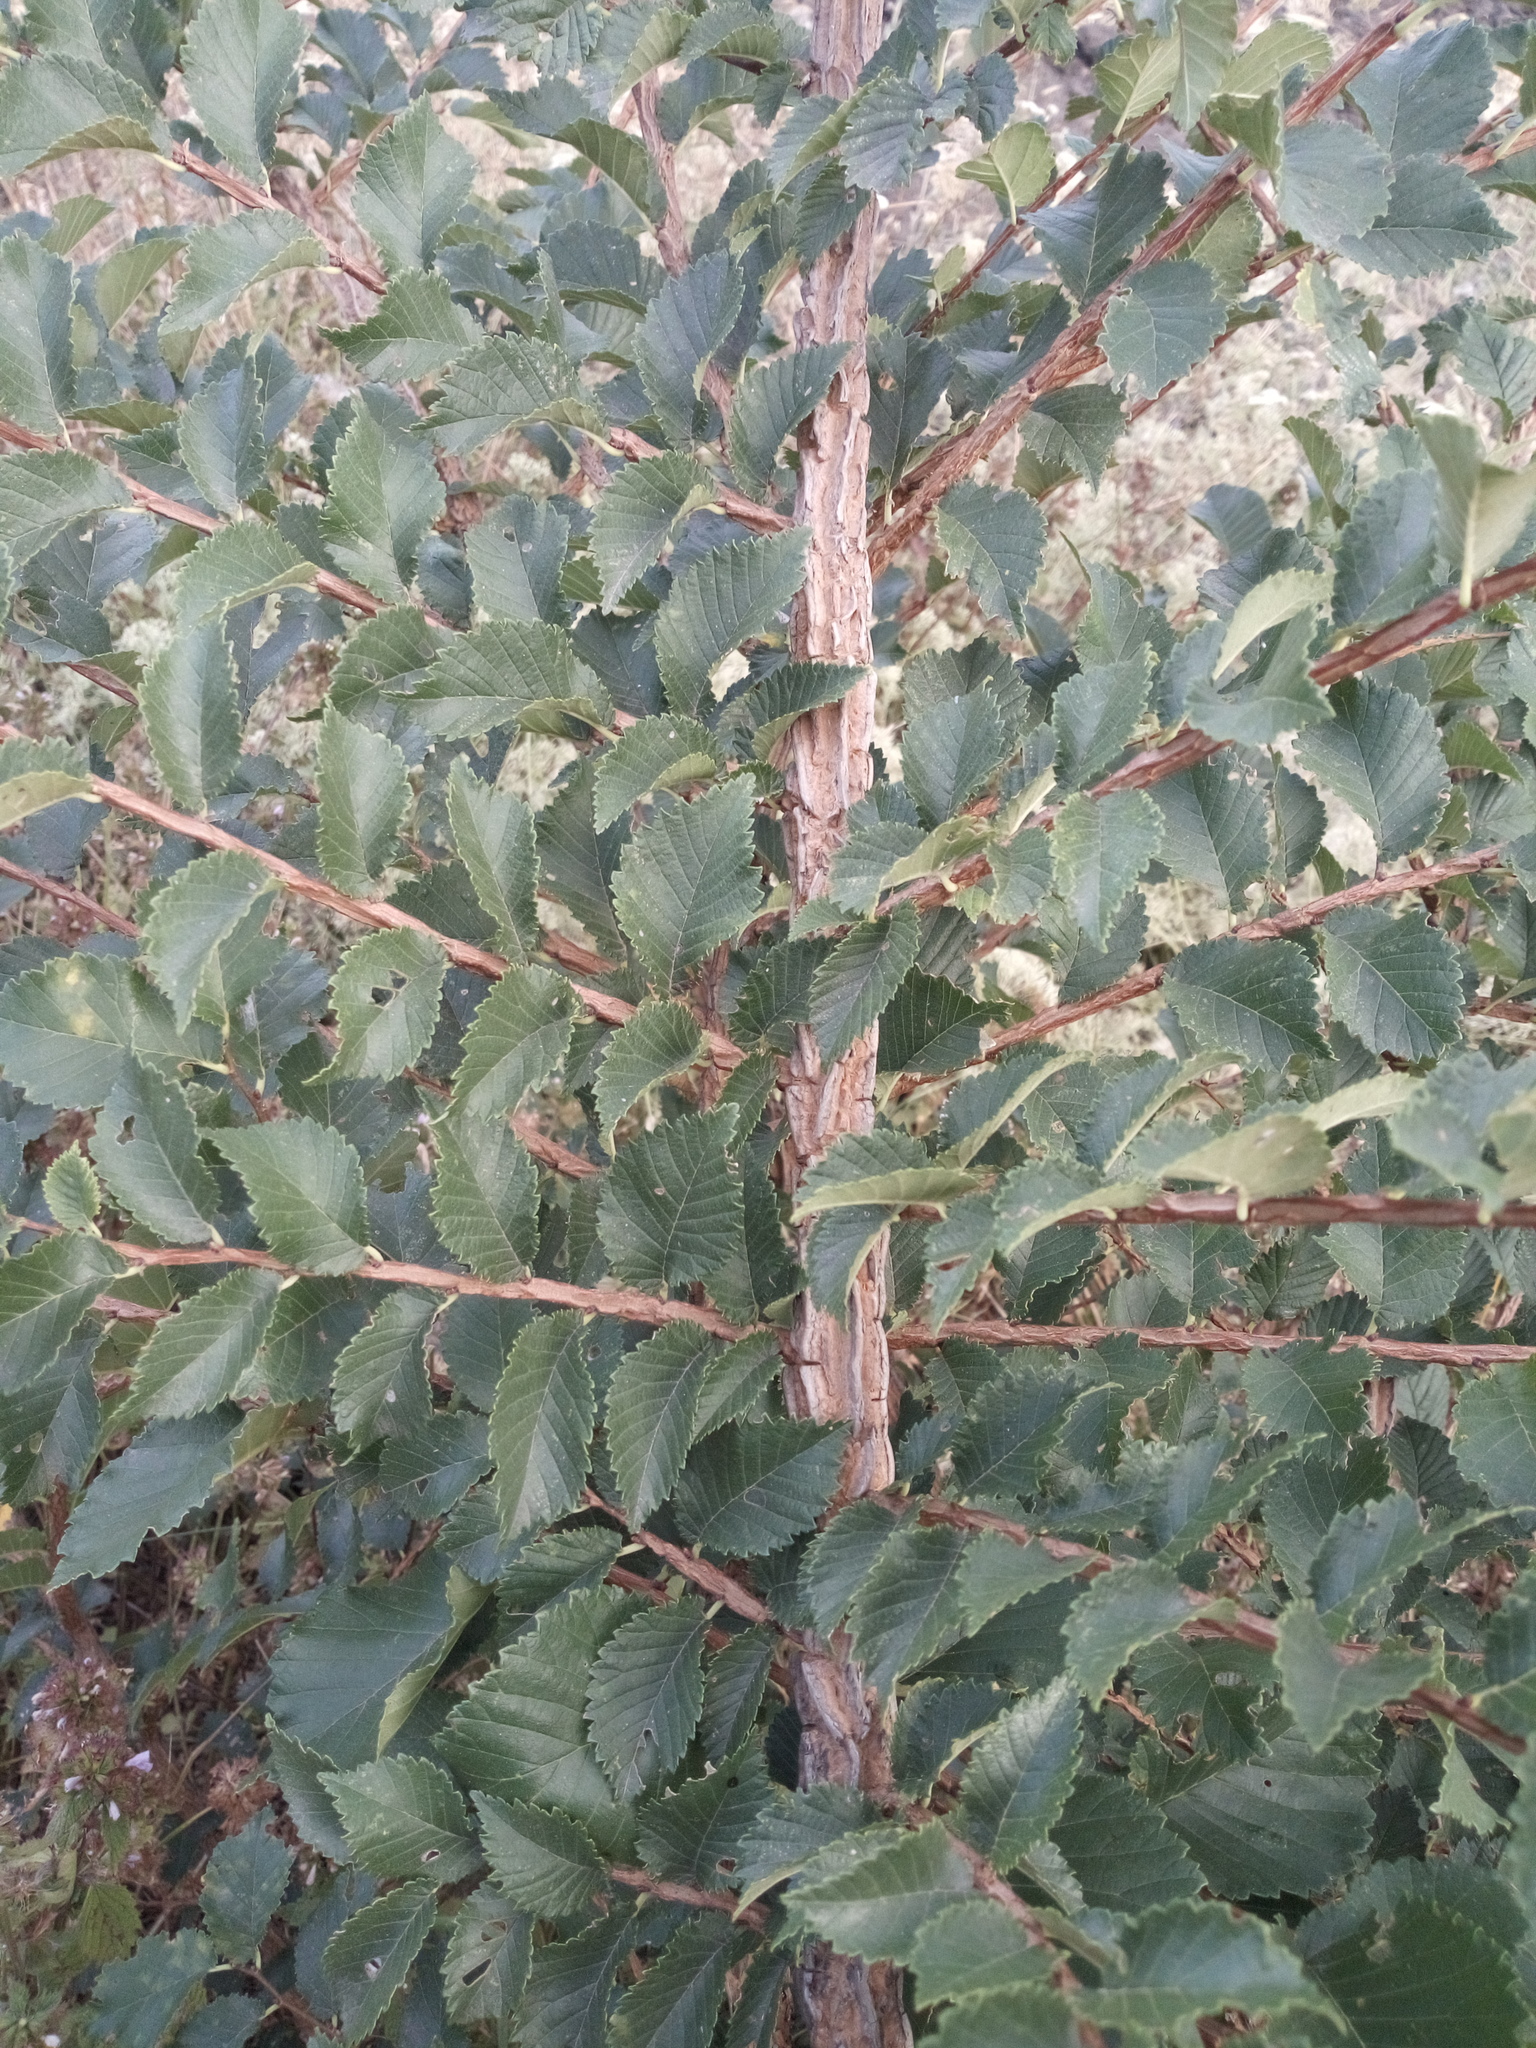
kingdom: Plantae
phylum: Tracheophyta
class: Magnoliopsida
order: Rosales
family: Ulmaceae
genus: Ulmus
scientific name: Ulmus minor
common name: Small-leaved elm
